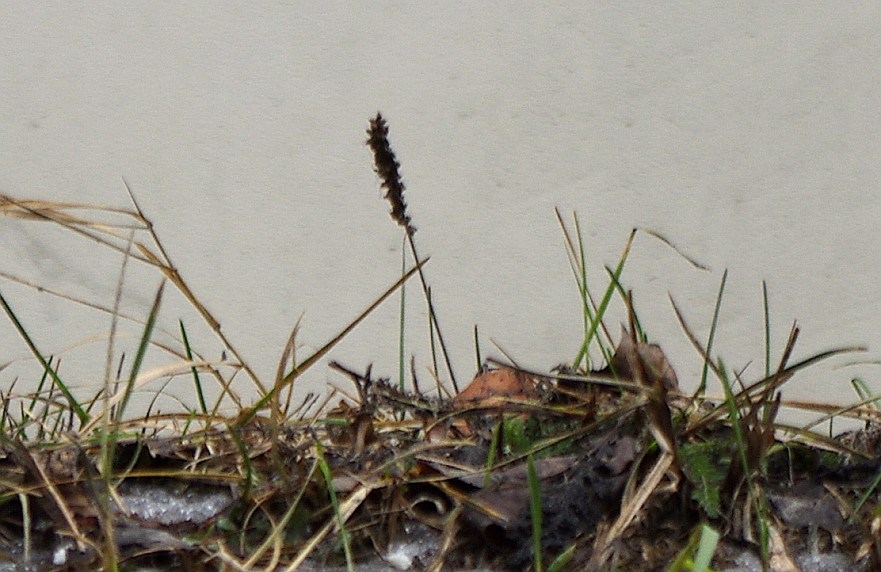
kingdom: Plantae
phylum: Tracheophyta
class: Magnoliopsida
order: Lamiales
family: Plantaginaceae
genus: Plantago
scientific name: Plantago major
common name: Common plantain
